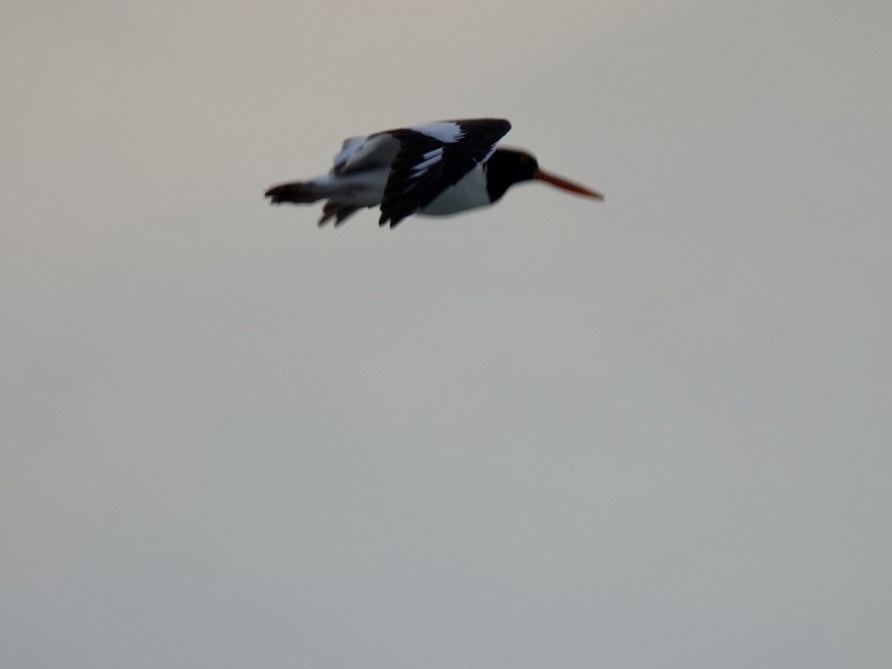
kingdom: Animalia
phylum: Chordata
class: Aves
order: Charadriiformes
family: Haematopodidae
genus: Haematopus
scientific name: Haematopus palliatus
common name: American oystercatcher
